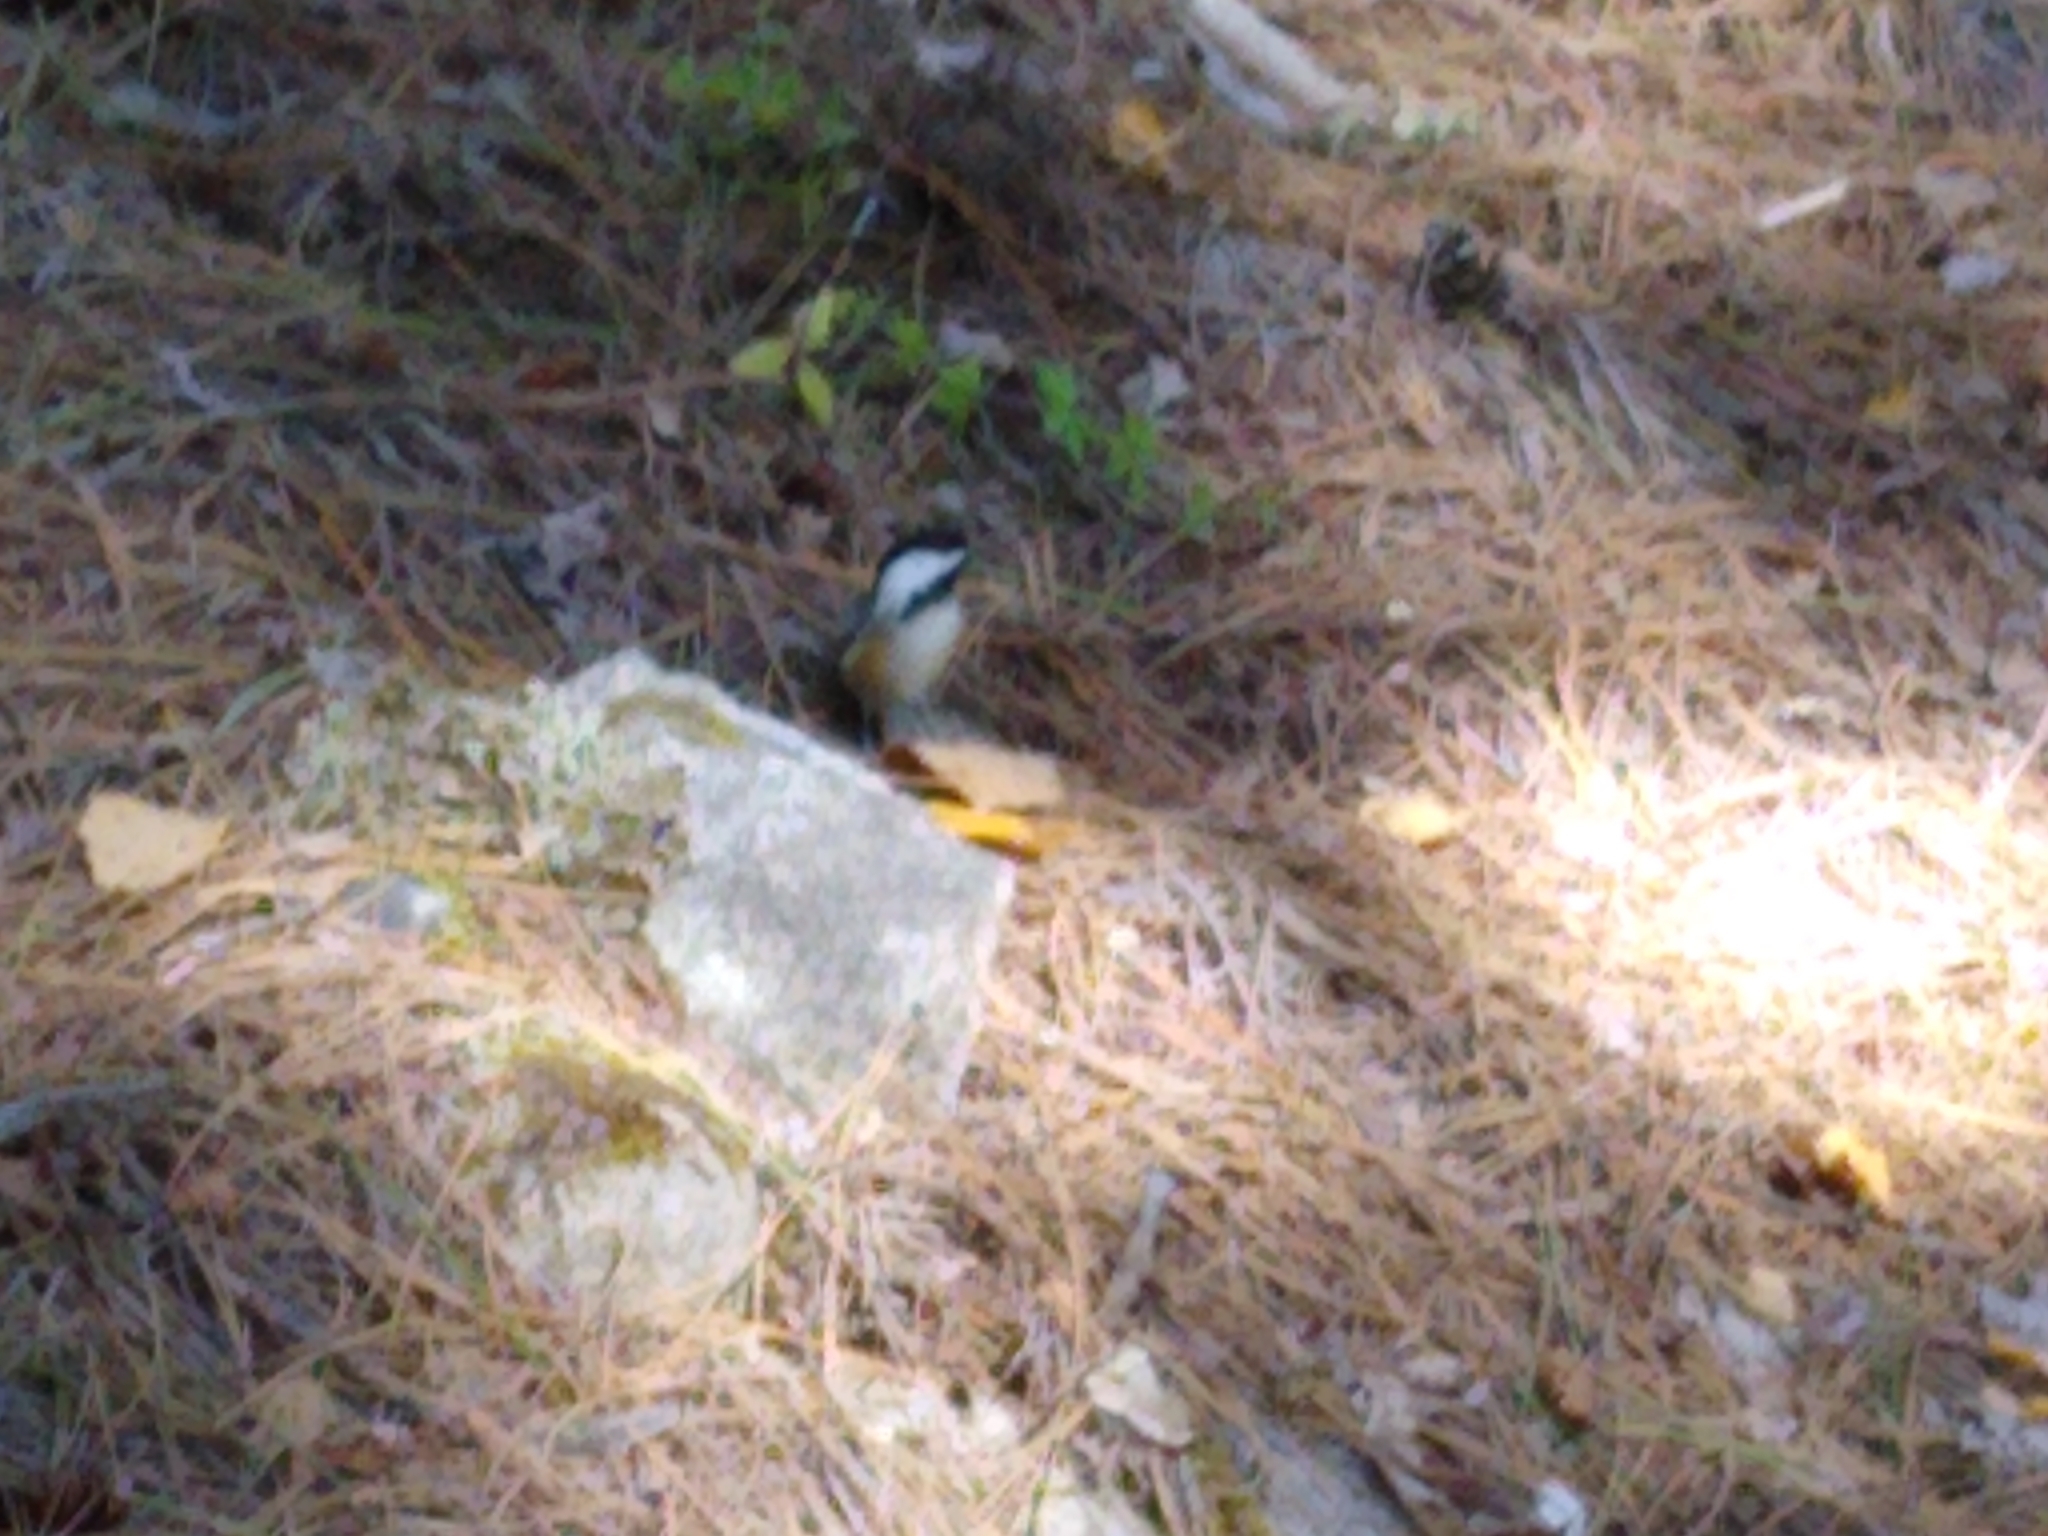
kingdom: Animalia
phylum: Chordata
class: Aves
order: Passeriformes
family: Paridae
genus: Poecile
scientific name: Poecile atricapillus
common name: Black-capped chickadee
